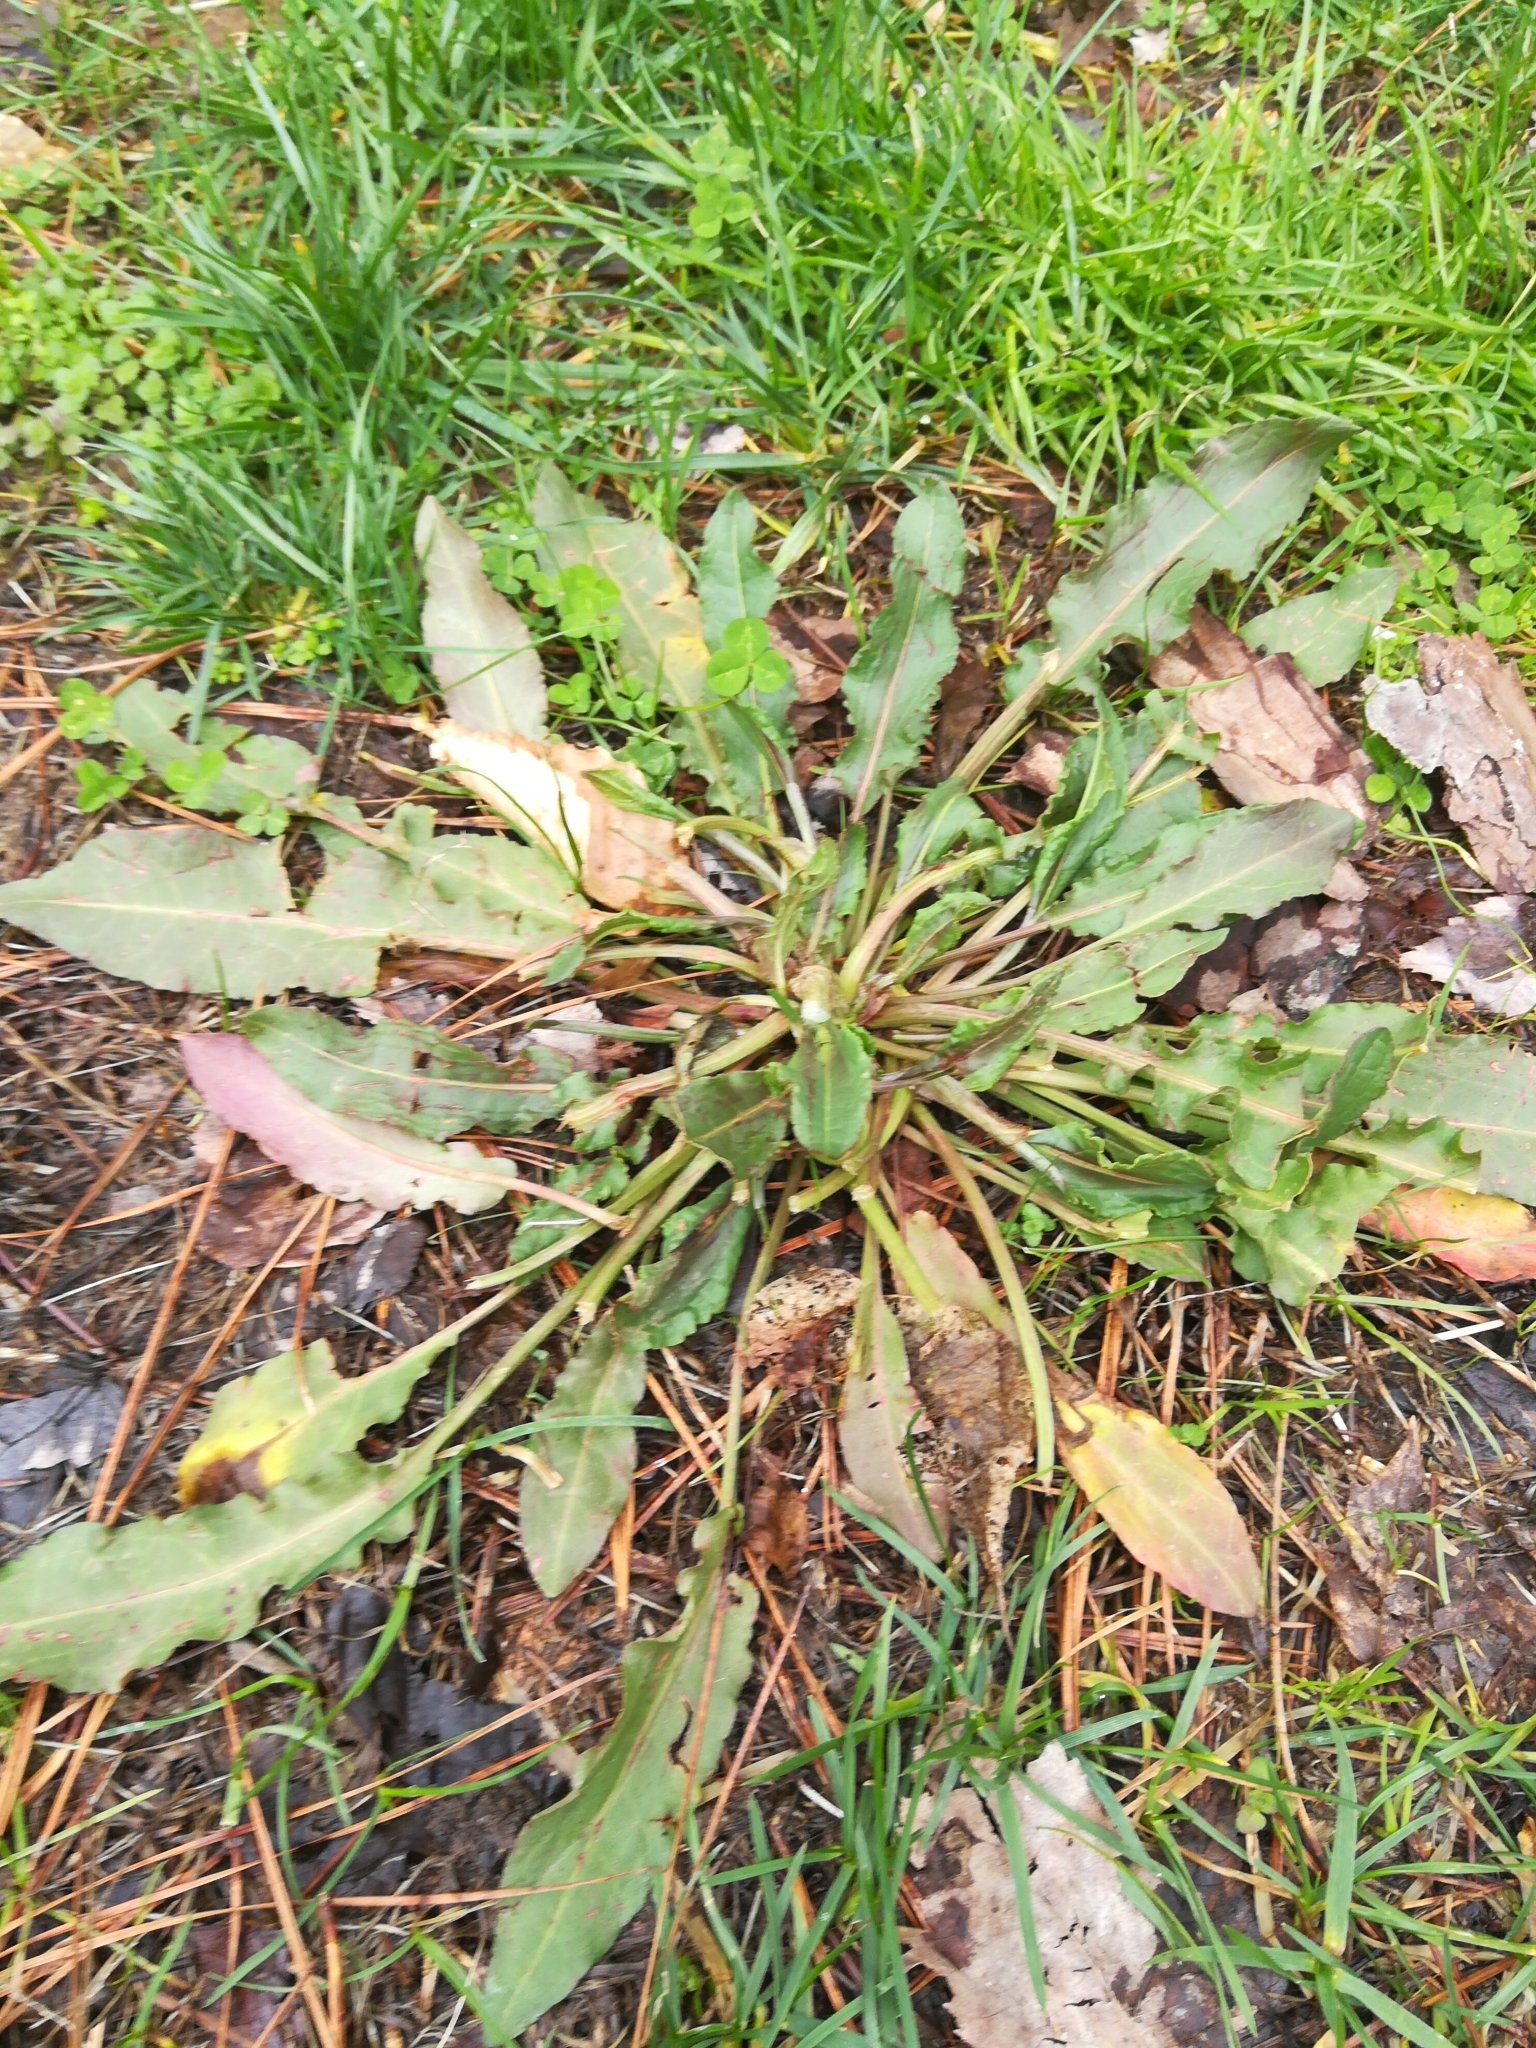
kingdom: Plantae
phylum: Tracheophyta
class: Magnoliopsida
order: Caryophyllales
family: Polygonaceae
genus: Rumex
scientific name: Rumex crispus
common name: Curled dock
